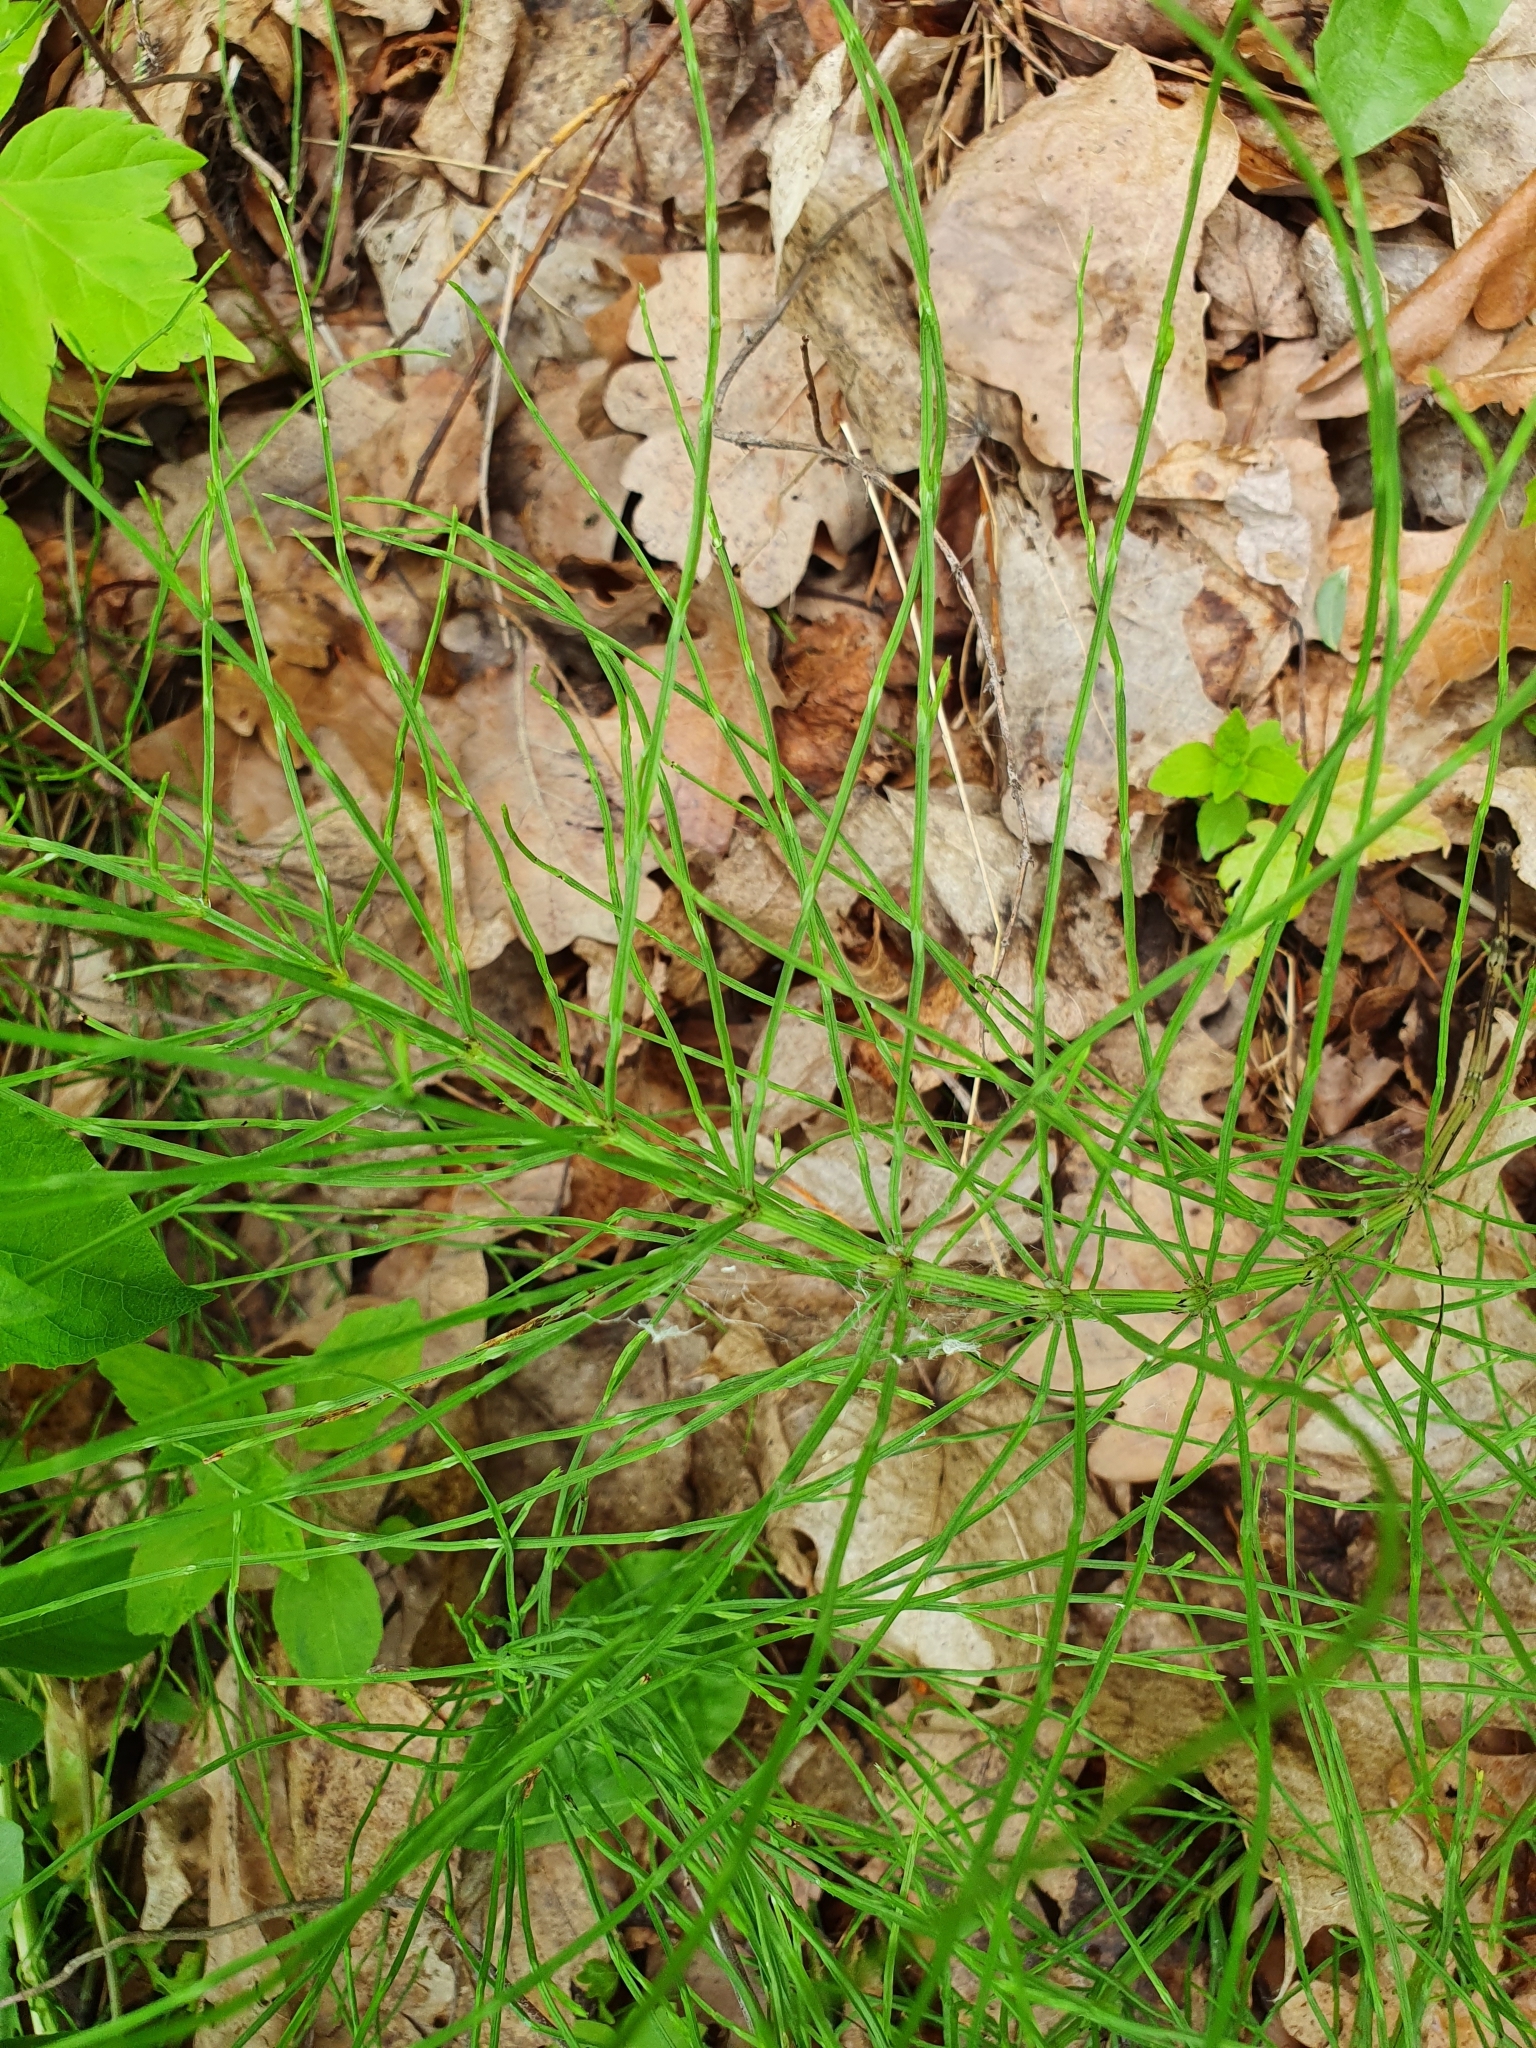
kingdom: Plantae
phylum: Tracheophyta
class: Polypodiopsida
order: Equisetales
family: Equisetaceae
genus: Equisetum
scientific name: Equisetum arvense
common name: Field horsetail
